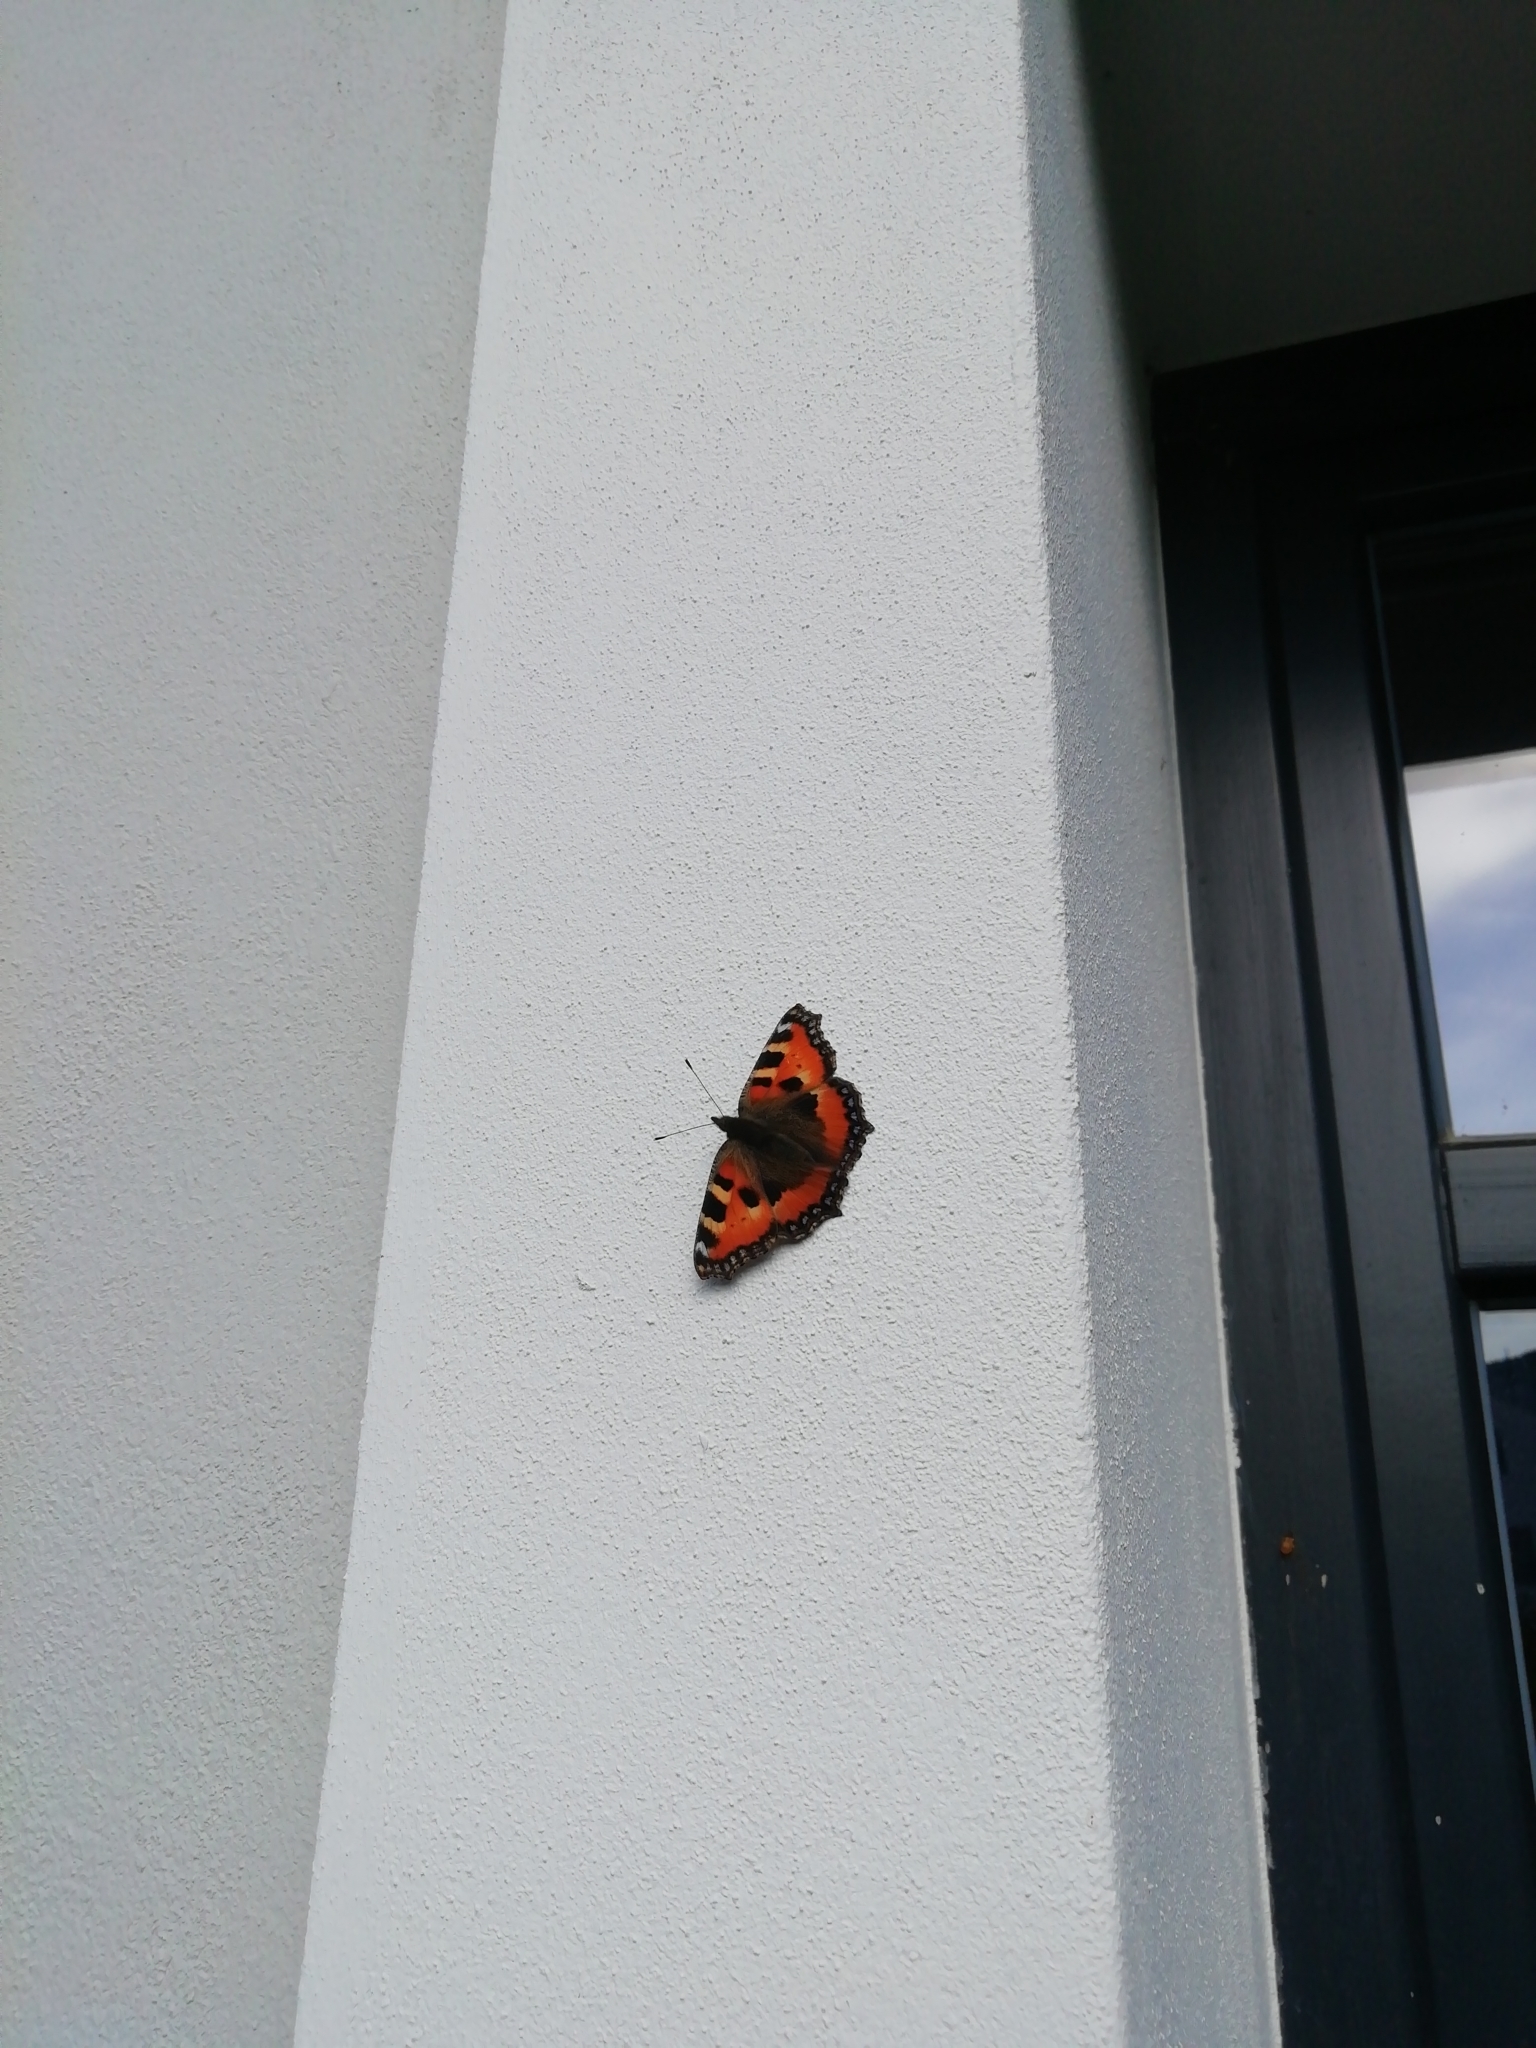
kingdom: Animalia
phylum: Arthropoda
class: Insecta
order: Lepidoptera
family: Nymphalidae
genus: Aglais
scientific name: Aglais urticae
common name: Small tortoiseshell
